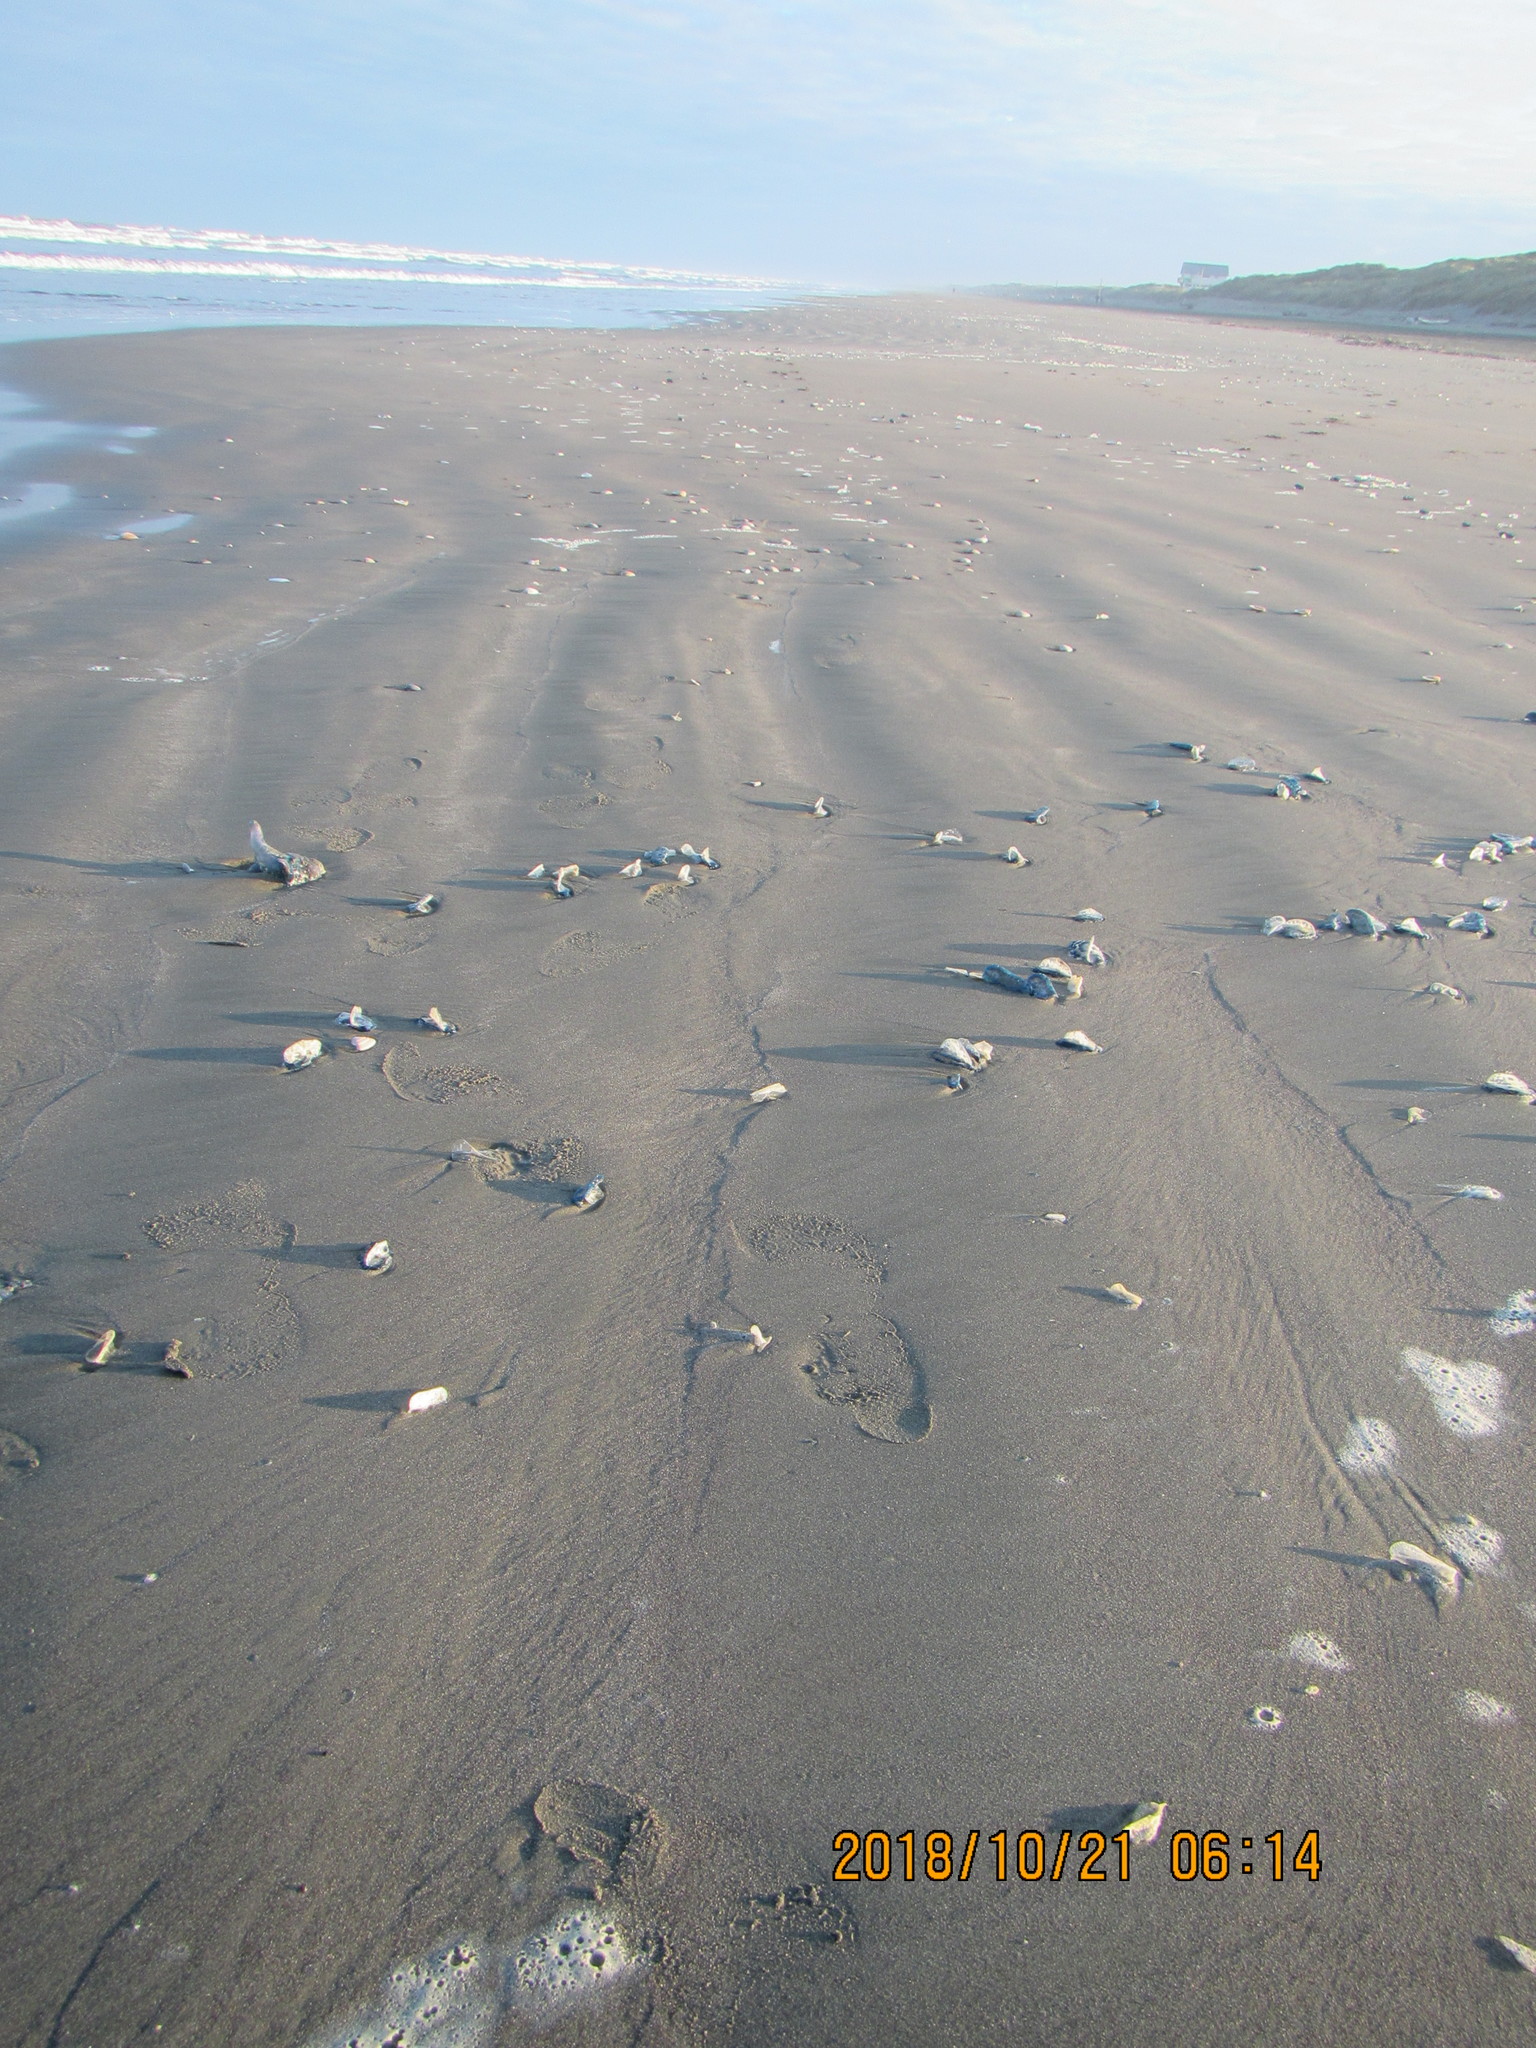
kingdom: Animalia
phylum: Cnidaria
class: Hydrozoa
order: Anthoathecata
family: Porpitidae
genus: Velella
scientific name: Velella velella
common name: By-the-wind-sailor
